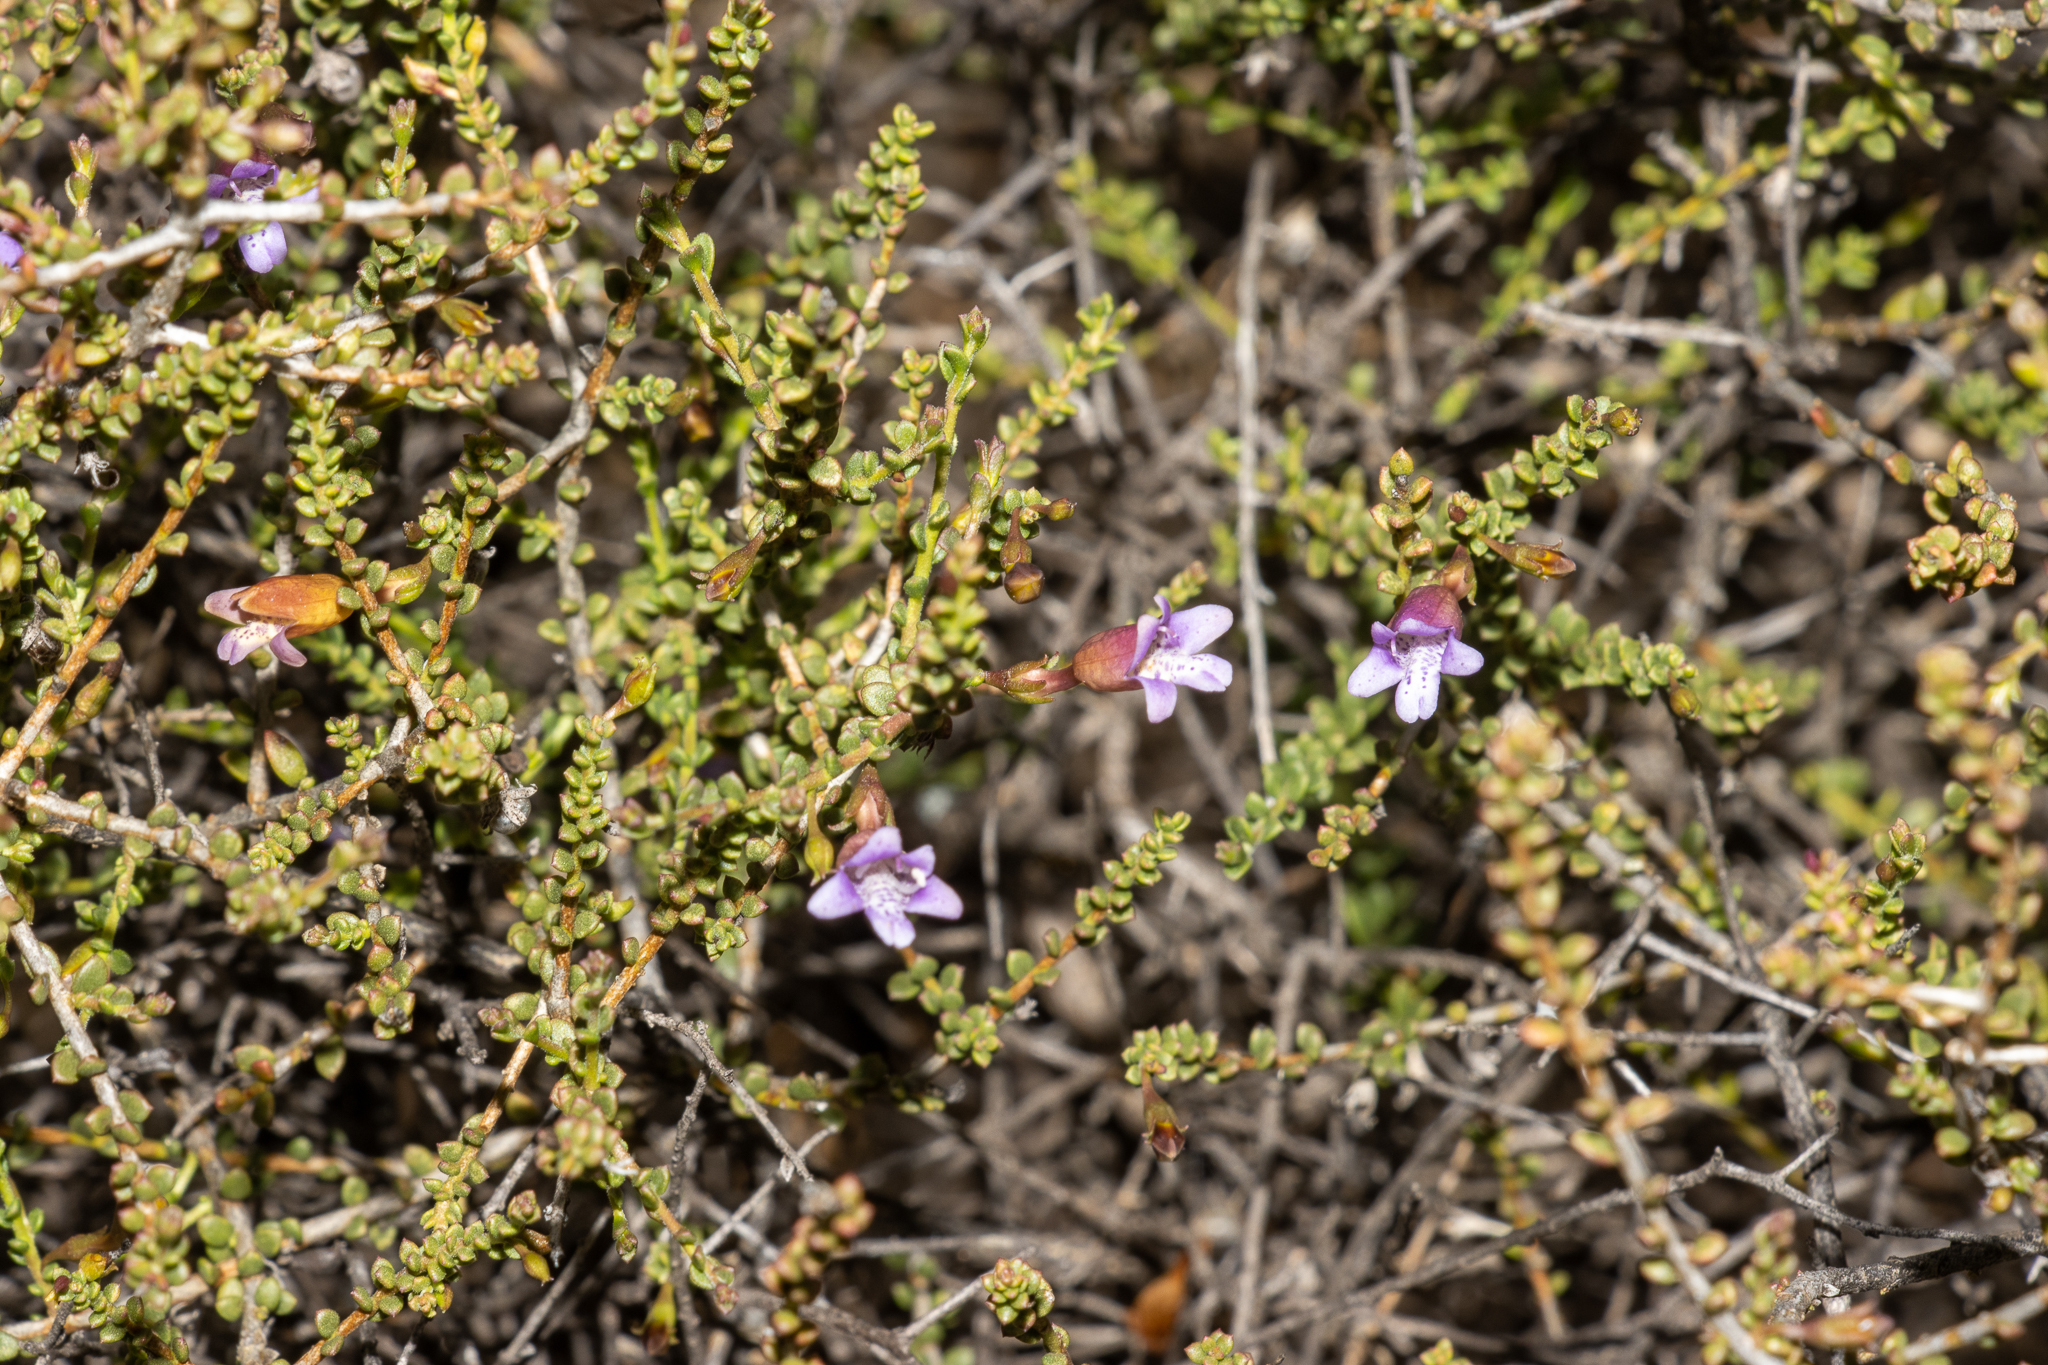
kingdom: Plantae
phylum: Tracheophyta
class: Magnoliopsida
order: Lamiales
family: Scrophulariaceae
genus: Eremophila
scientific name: Eremophila parvifolia
